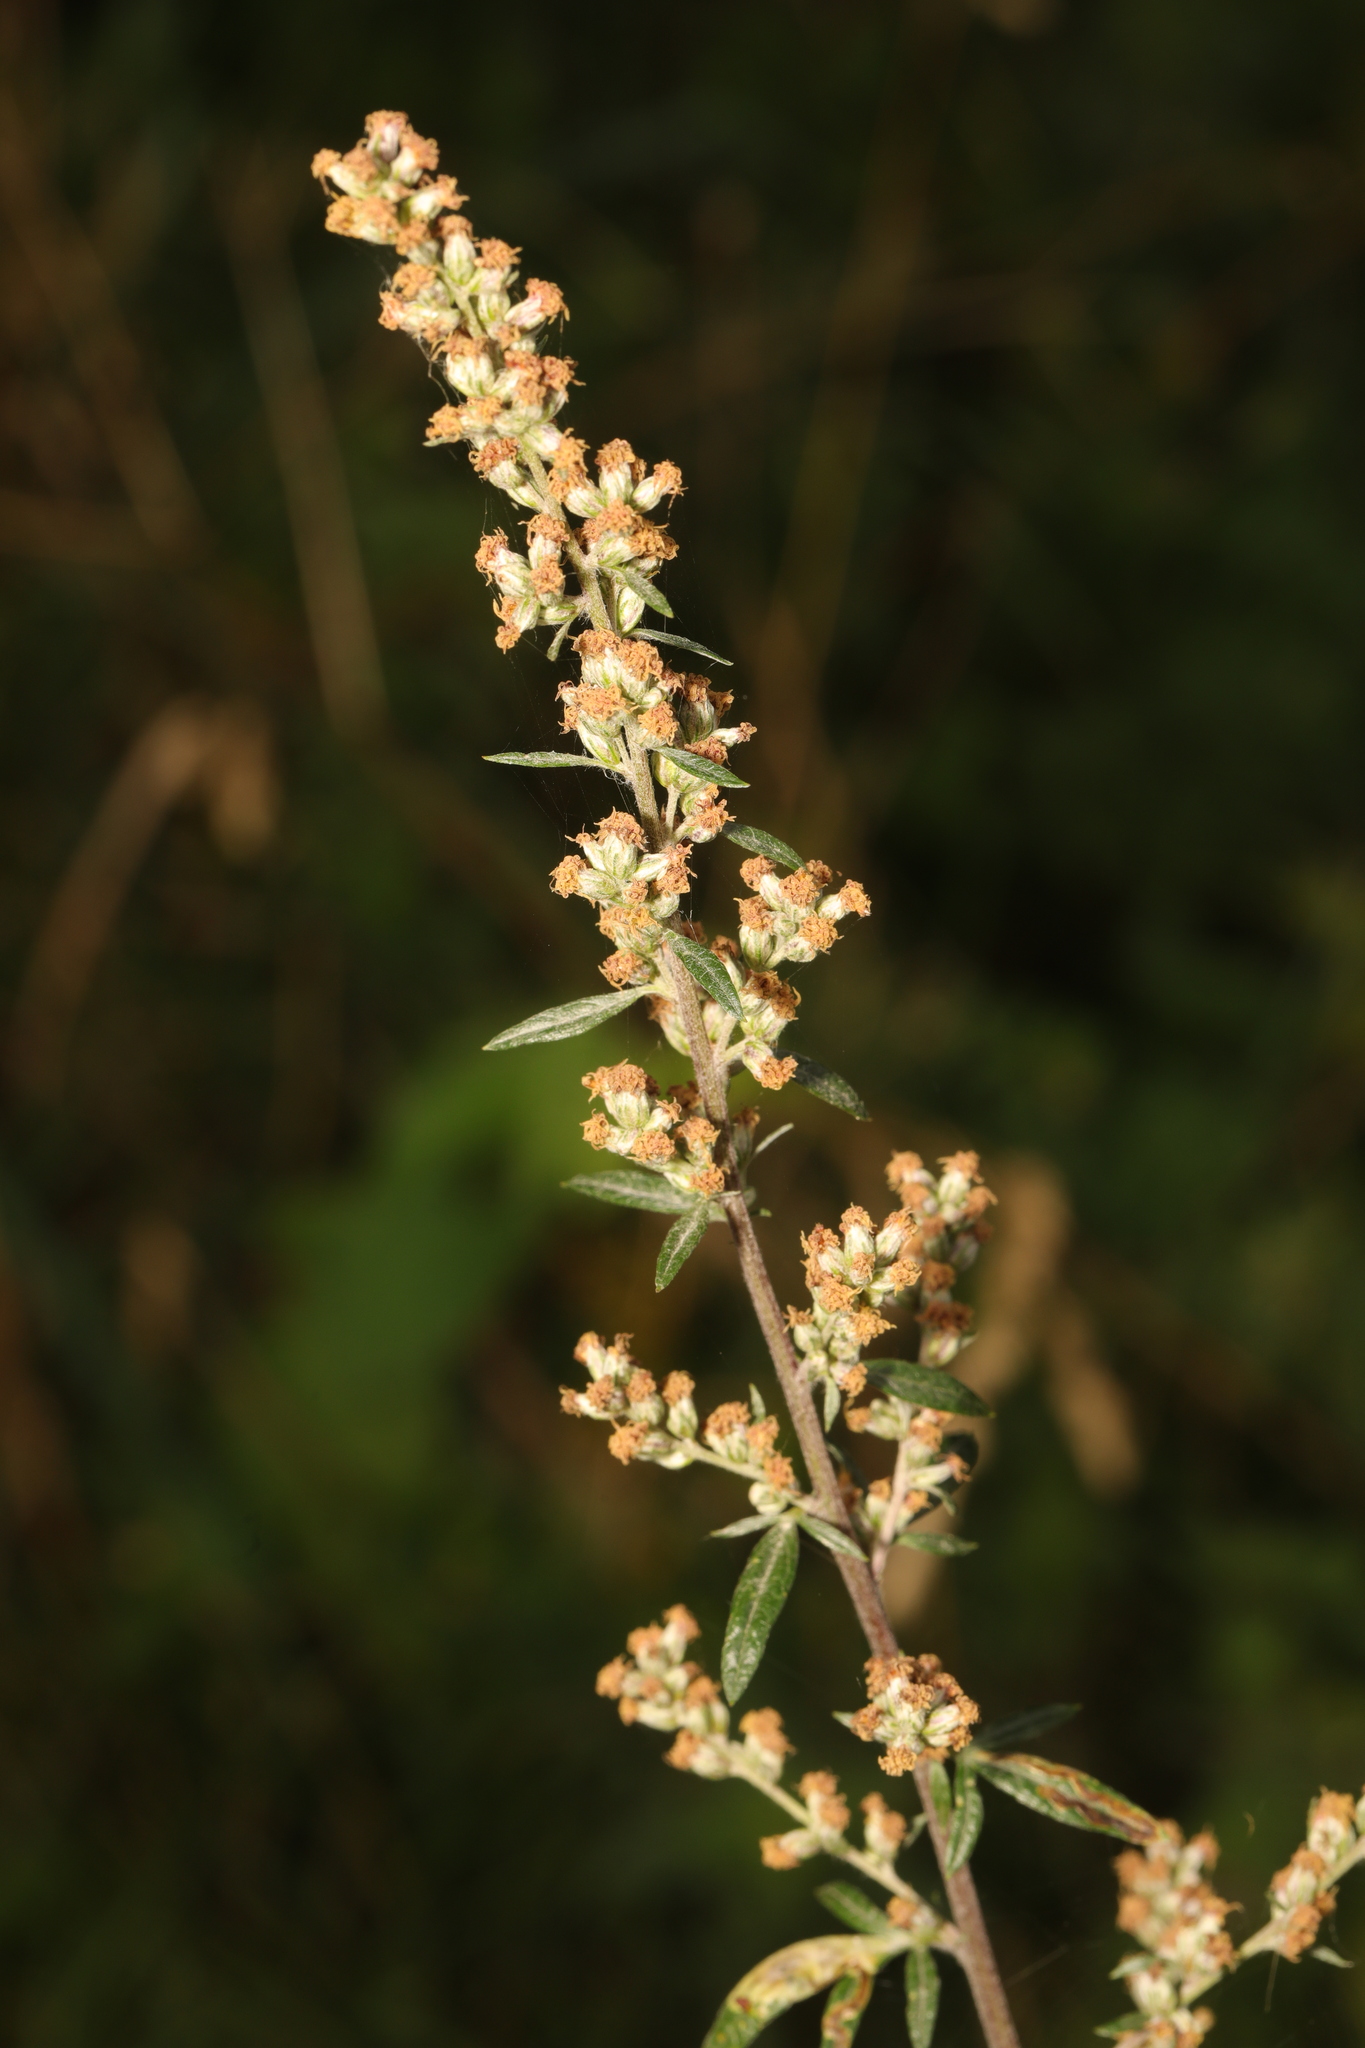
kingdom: Plantae
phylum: Tracheophyta
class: Magnoliopsida
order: Asterales
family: Asteraceae
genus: Artemisia
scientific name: Artemisia vulgaris
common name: Mugwort
